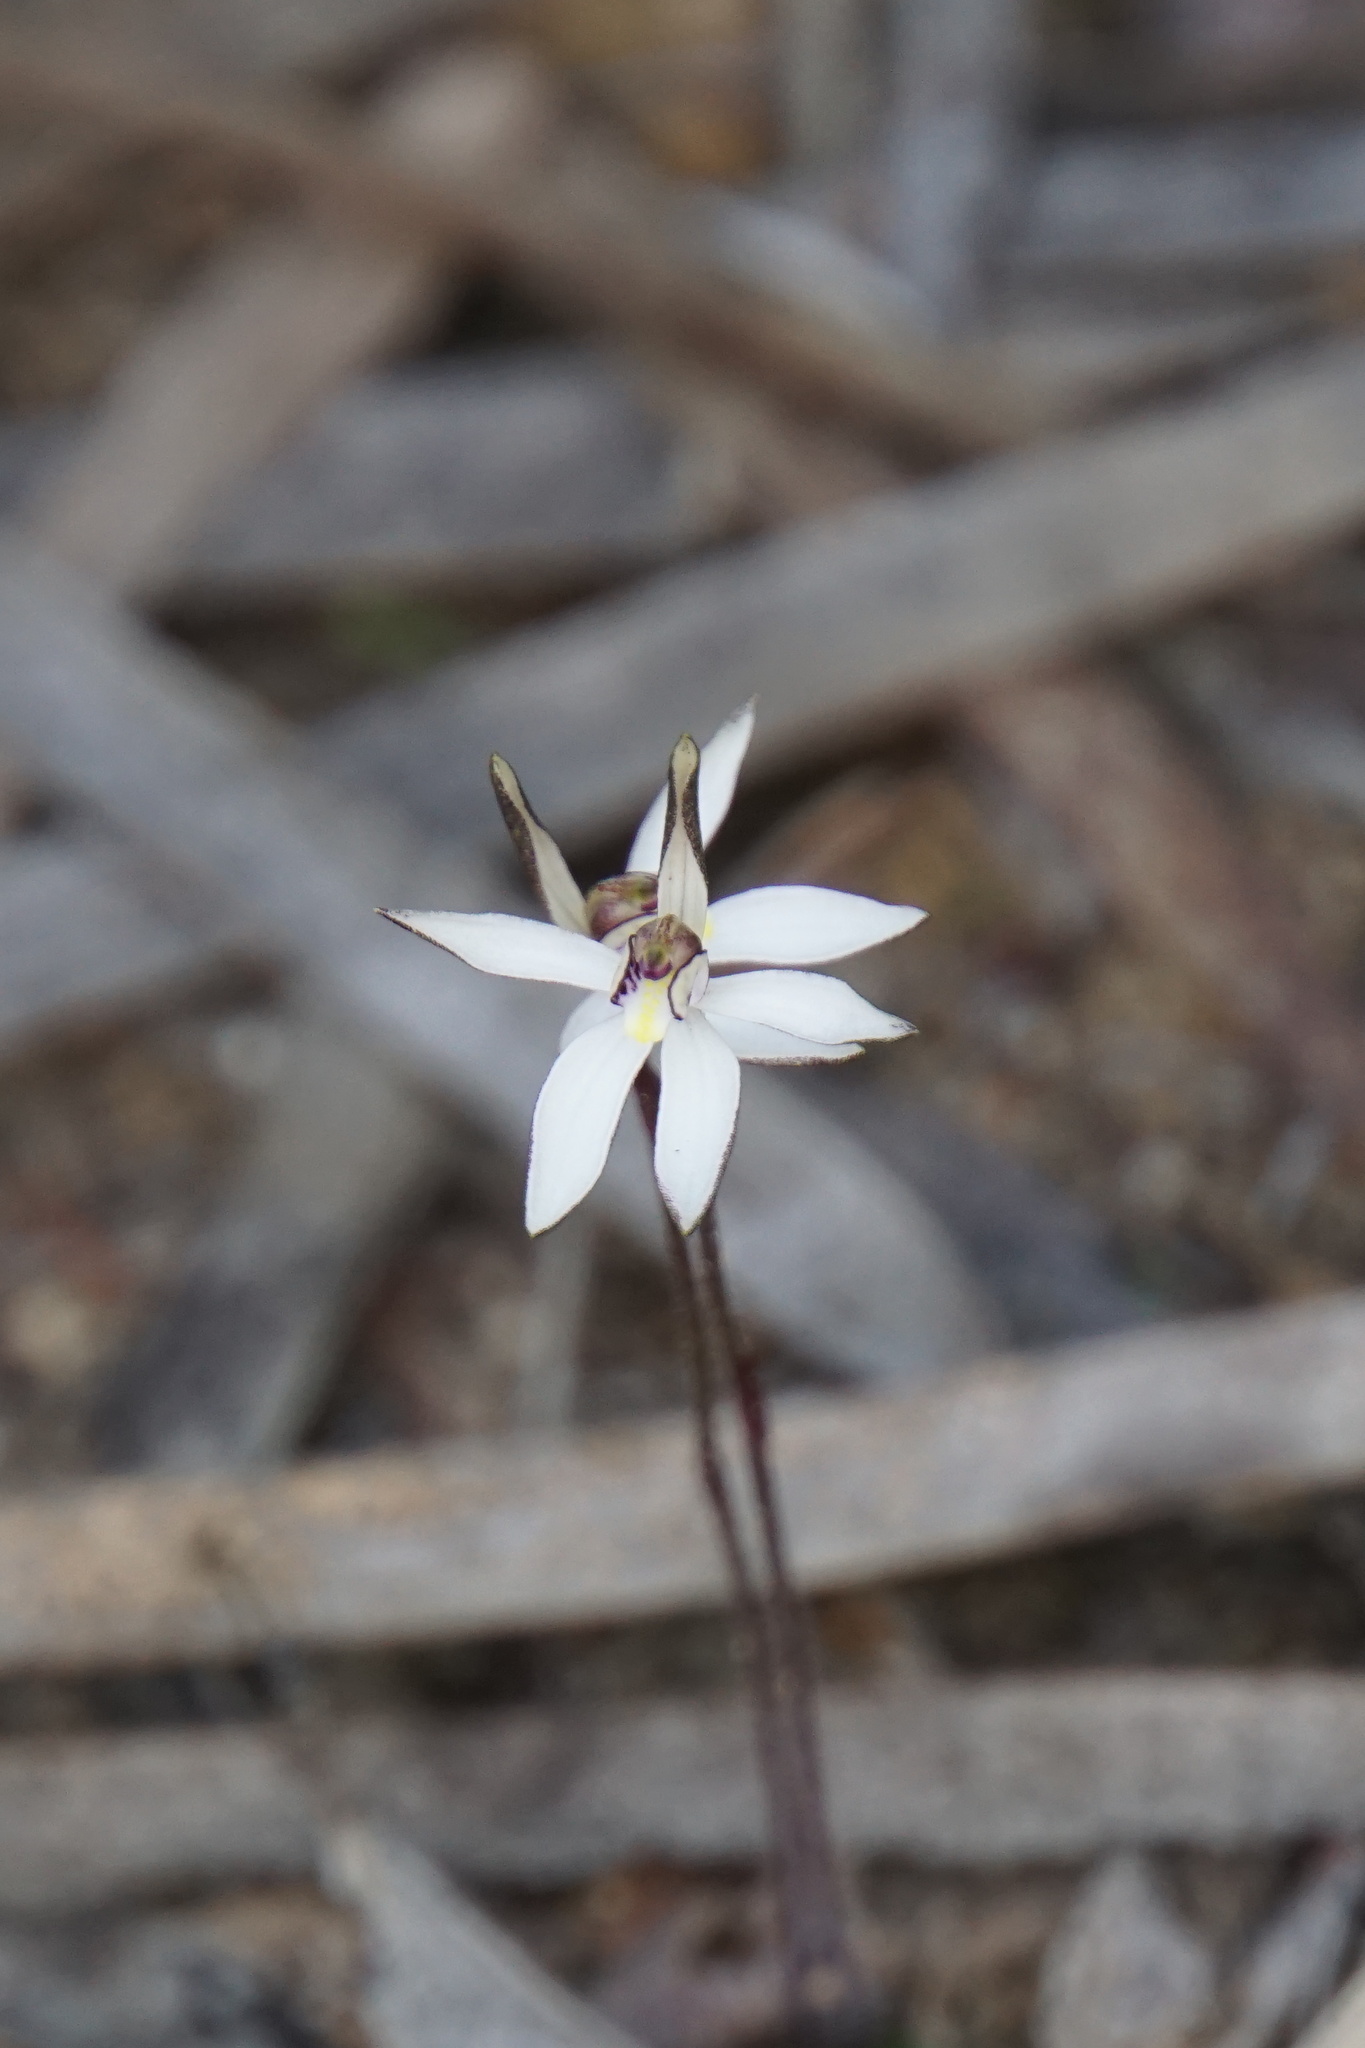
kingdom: Plantae
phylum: Tracheophyta
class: Liliopsida
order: Asparagales
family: Orchidaceae
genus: Caladenia
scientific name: Caladenia saccharata
